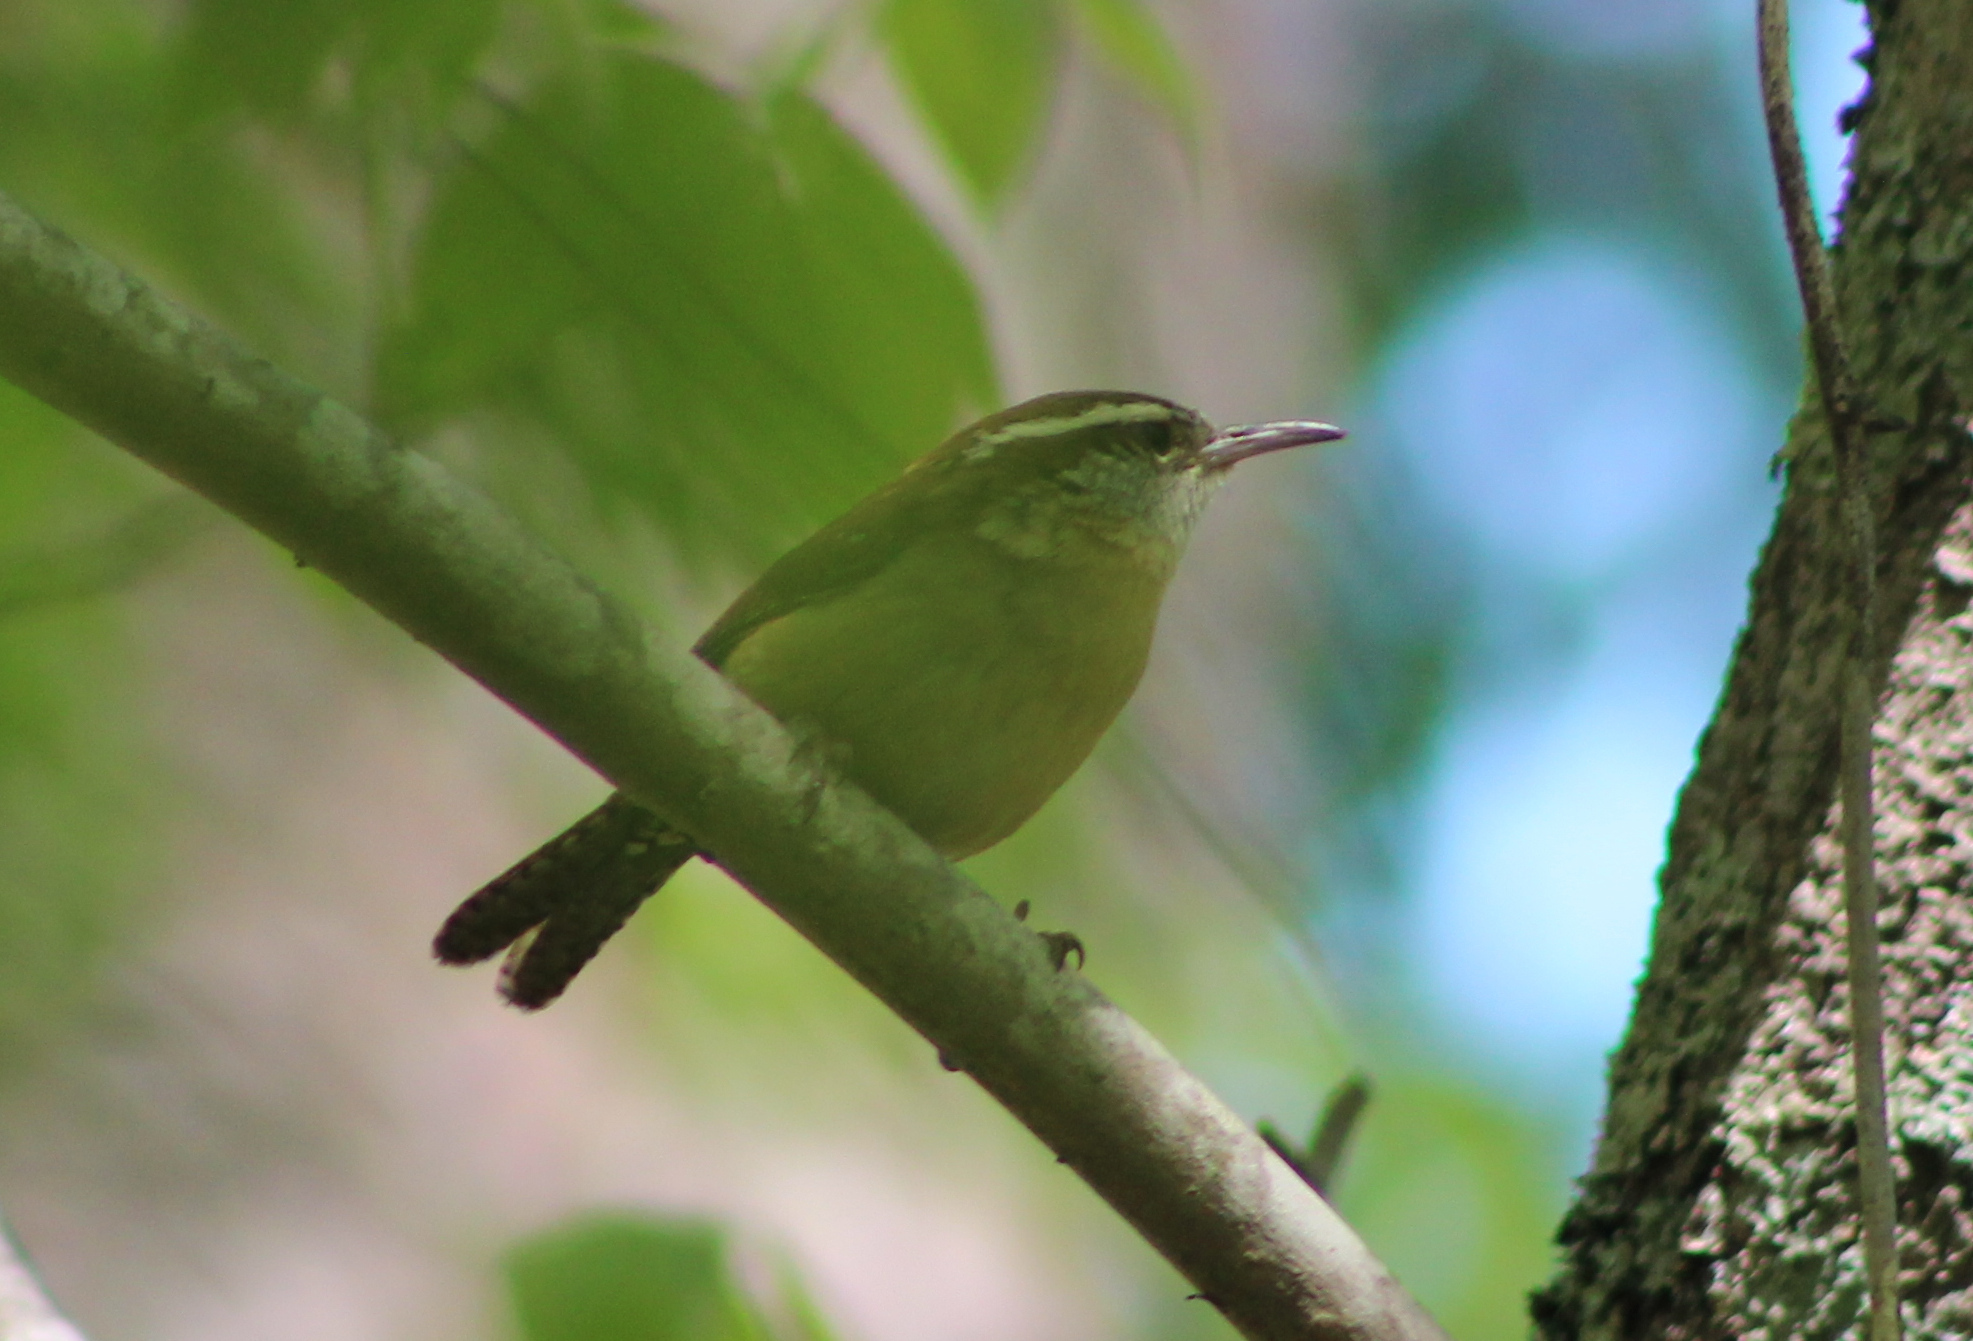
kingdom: Animalia
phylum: Chordata
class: Aves
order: Passeriformes
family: Troglodytidae
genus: Thryothorus
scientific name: Thryothorus ludovicianus
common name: Carolina wren
